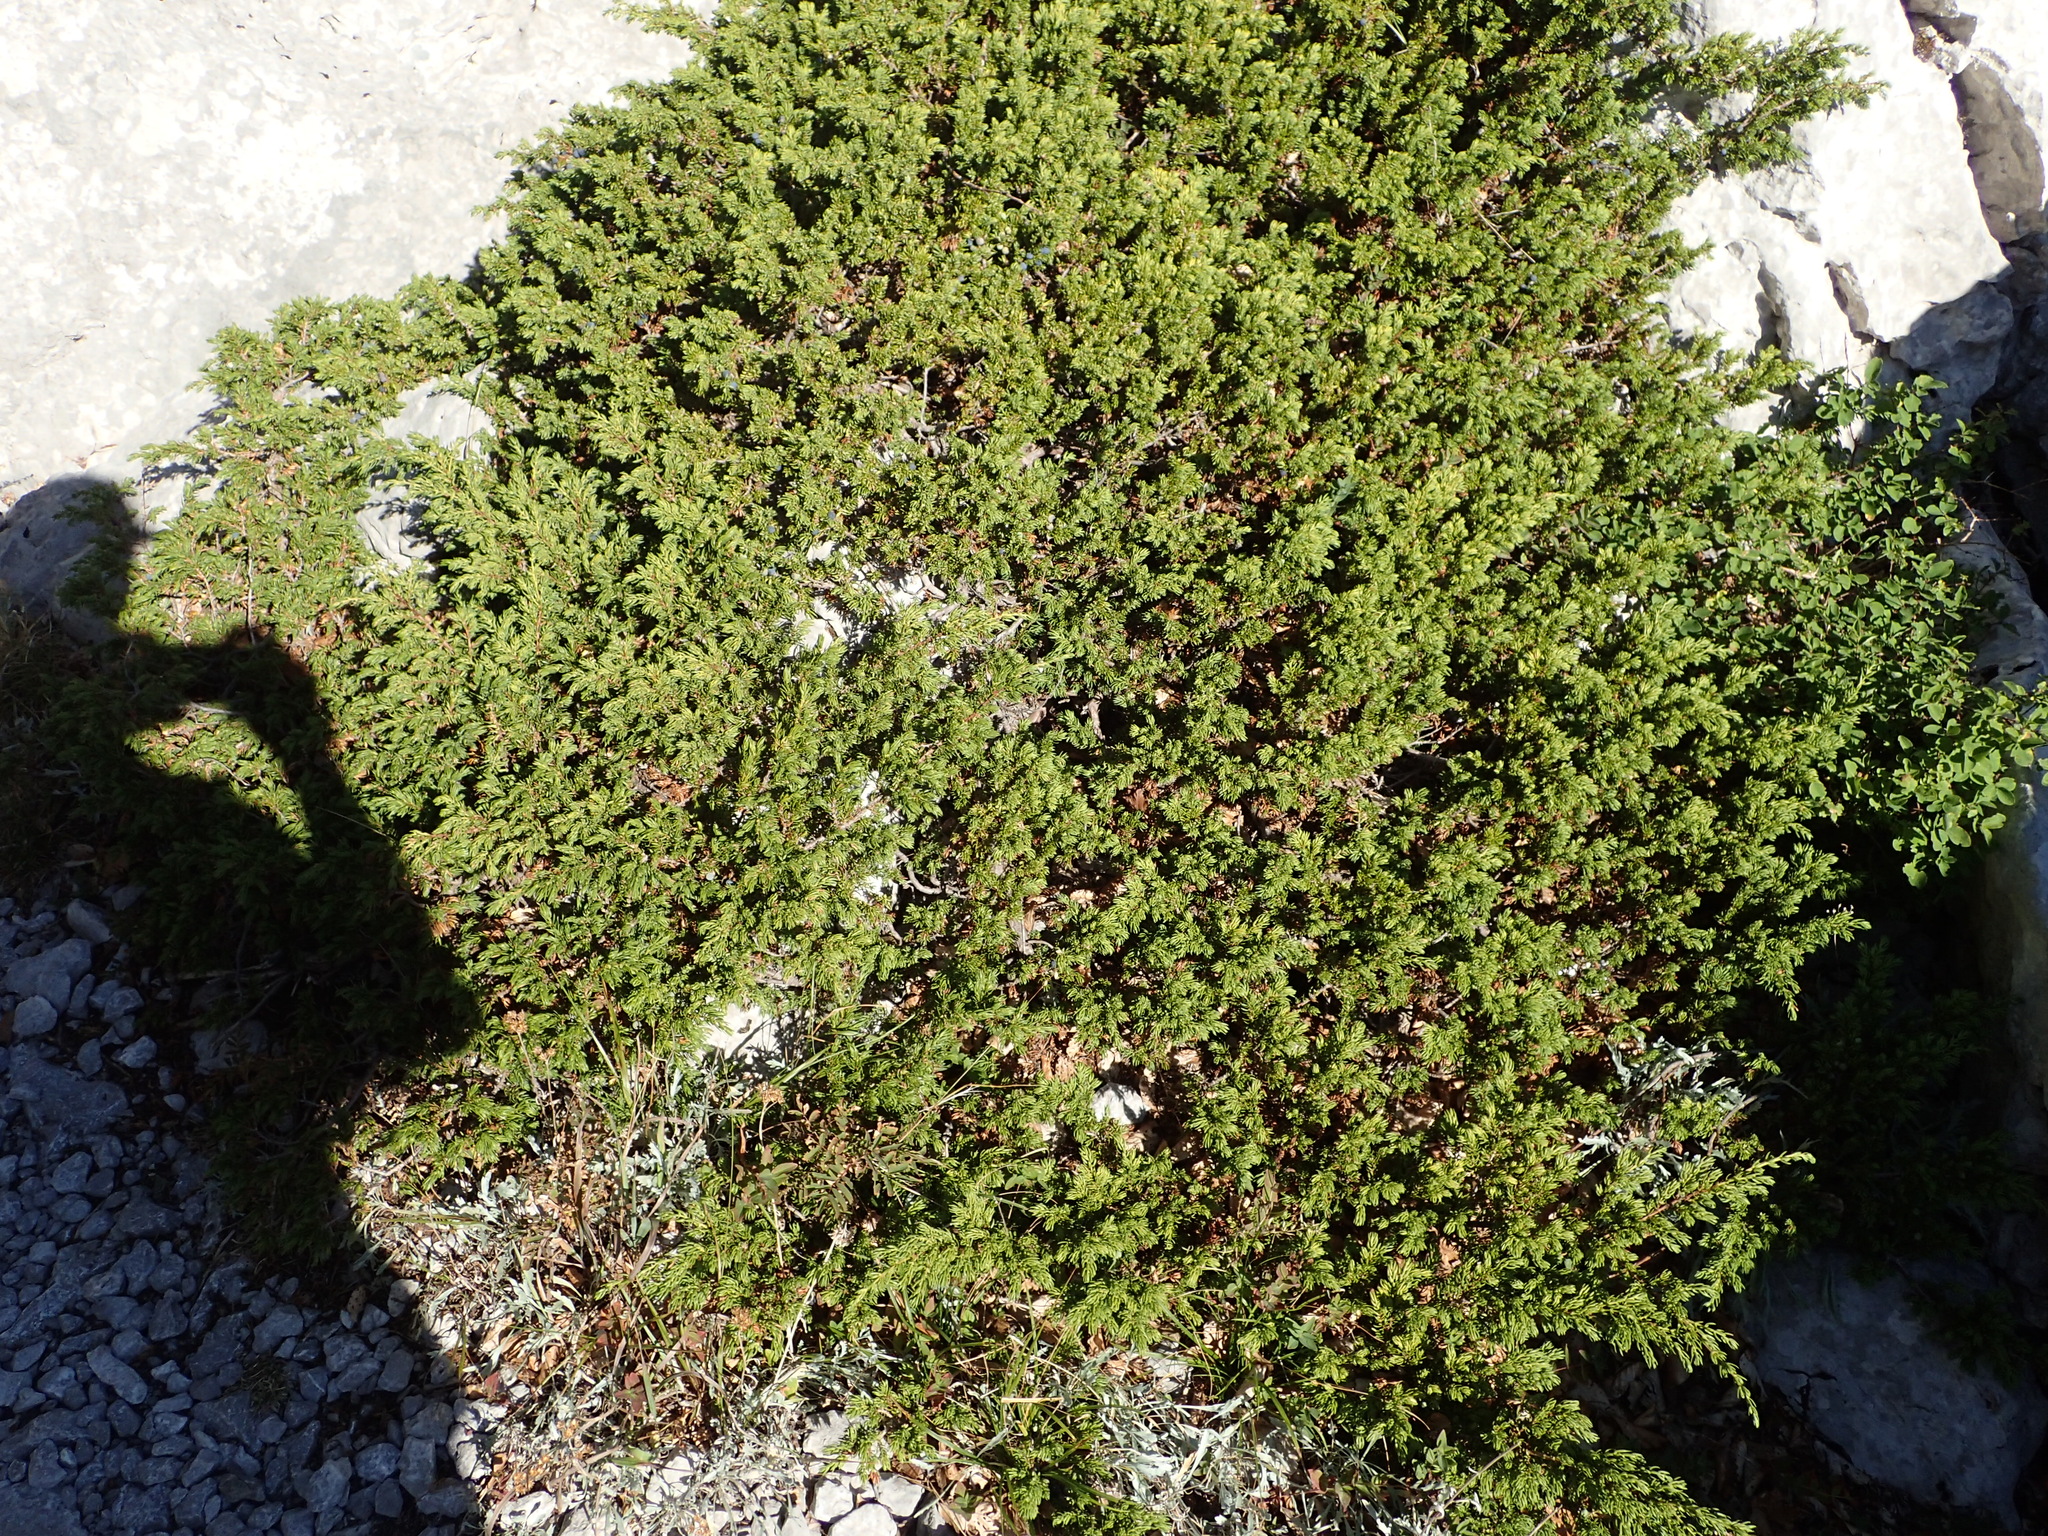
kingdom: Plantae
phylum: Tracheophyta
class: Pinopsida
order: Pinales
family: Cupressaceae
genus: Juniperus
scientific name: Juniperus communis
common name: Common juniper
